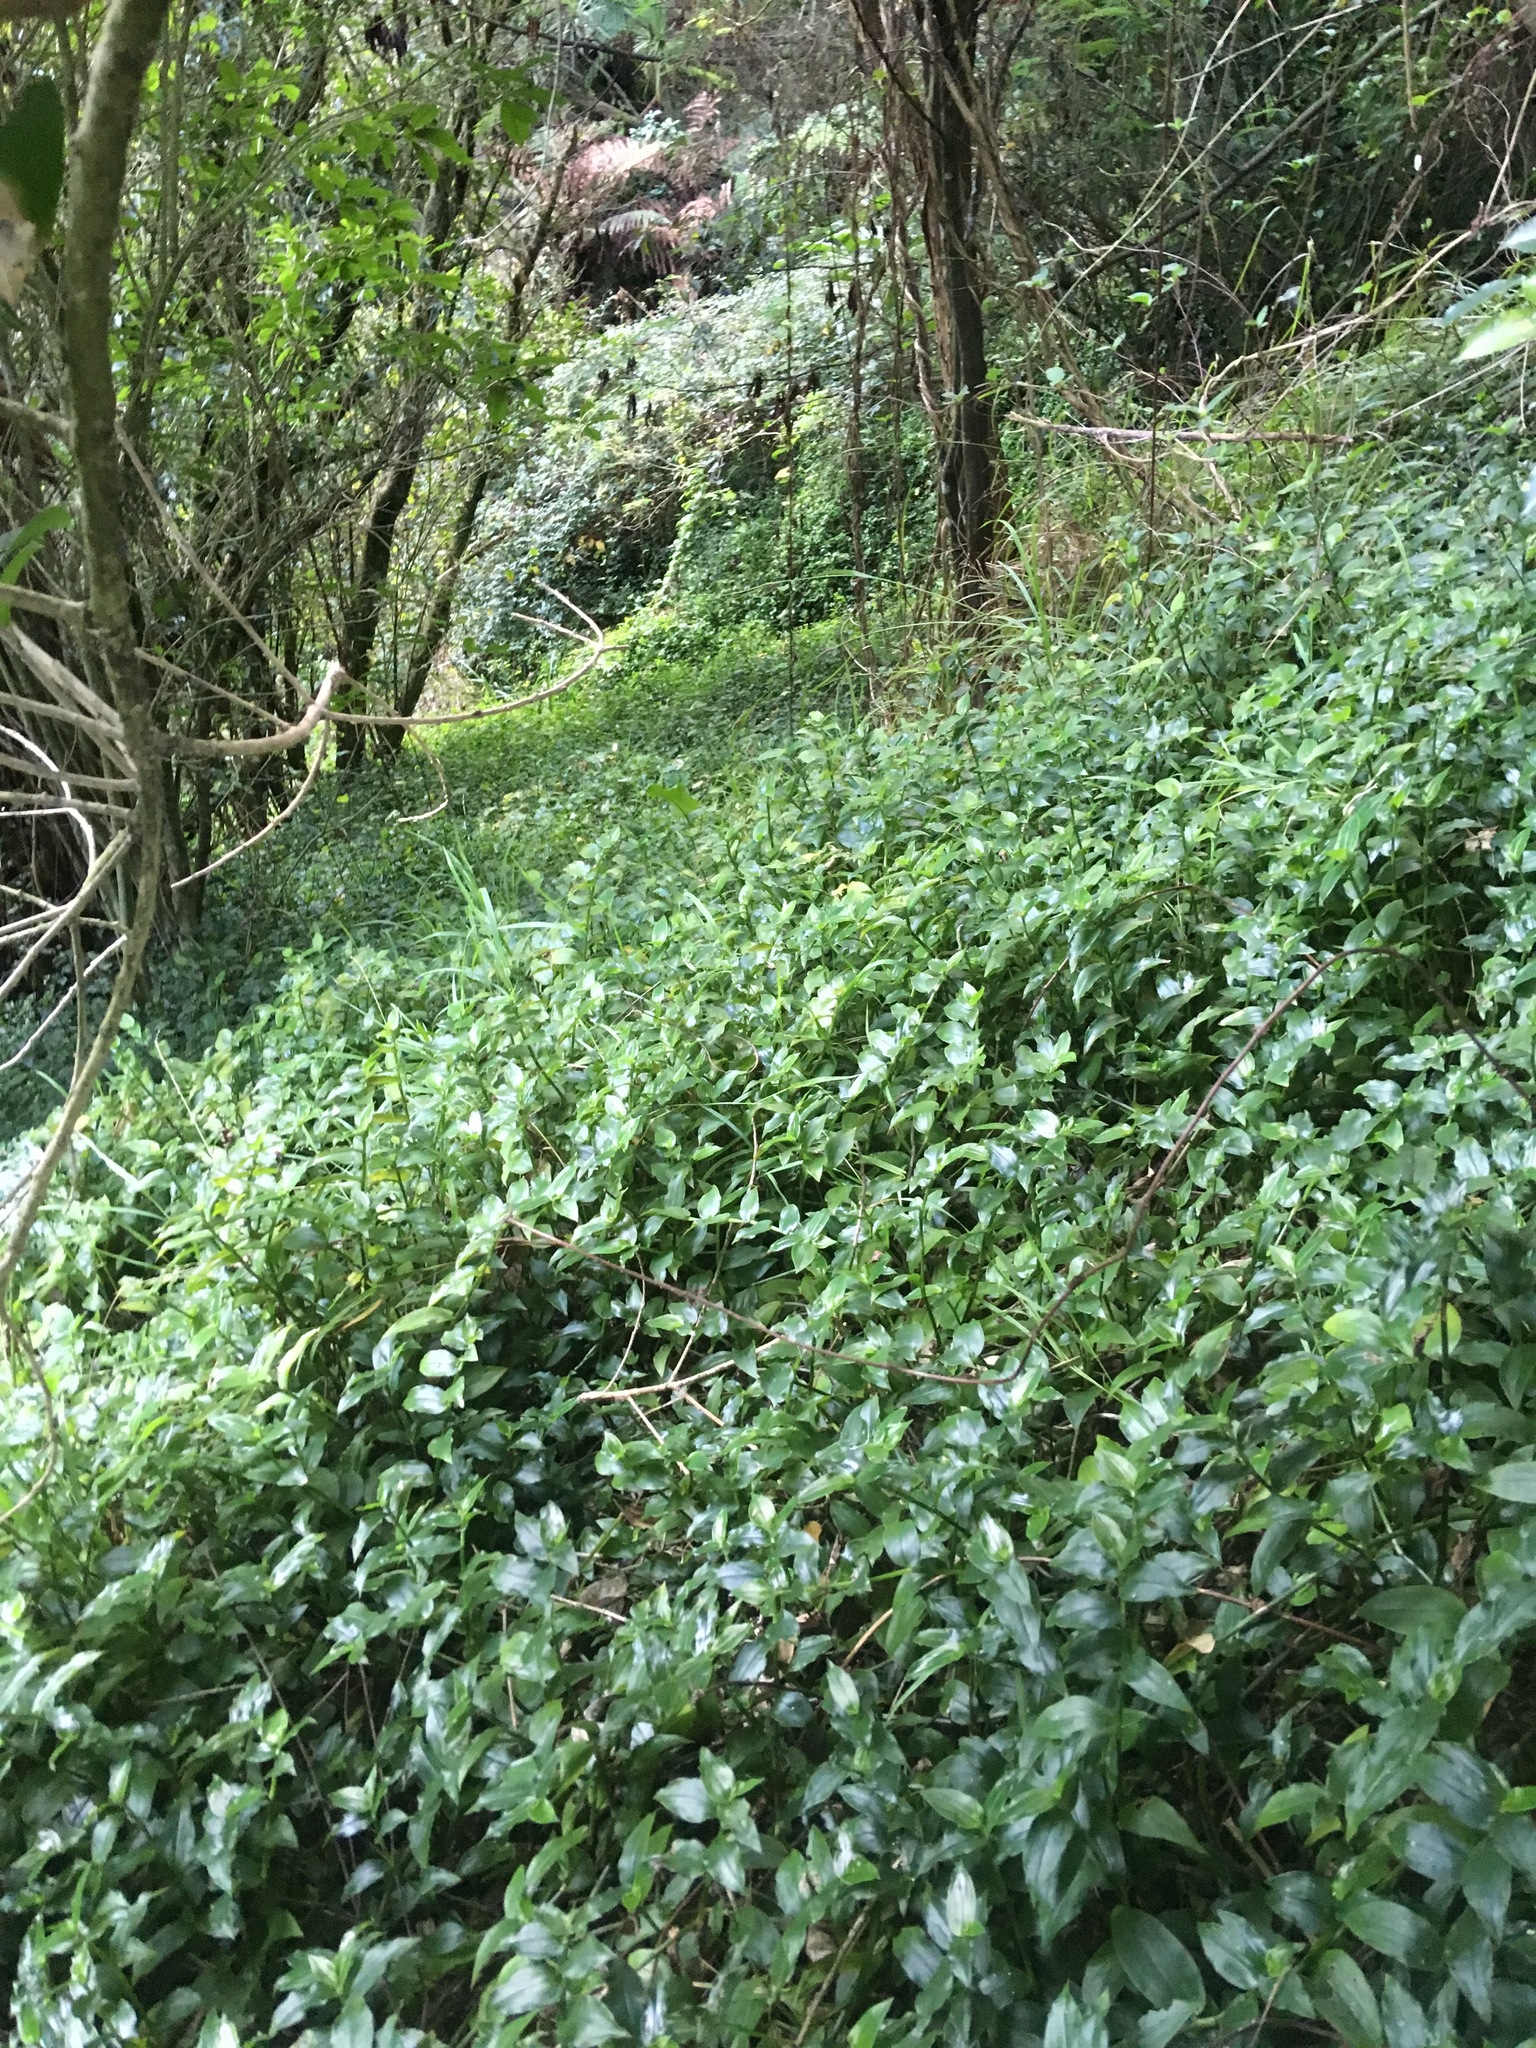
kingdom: Plantae
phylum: Tracheophyta
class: Liliopsida
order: Commelinales
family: Commelinaceae
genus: Tradescantia
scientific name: Tradescantia fluminensis
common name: Wandering-jew
